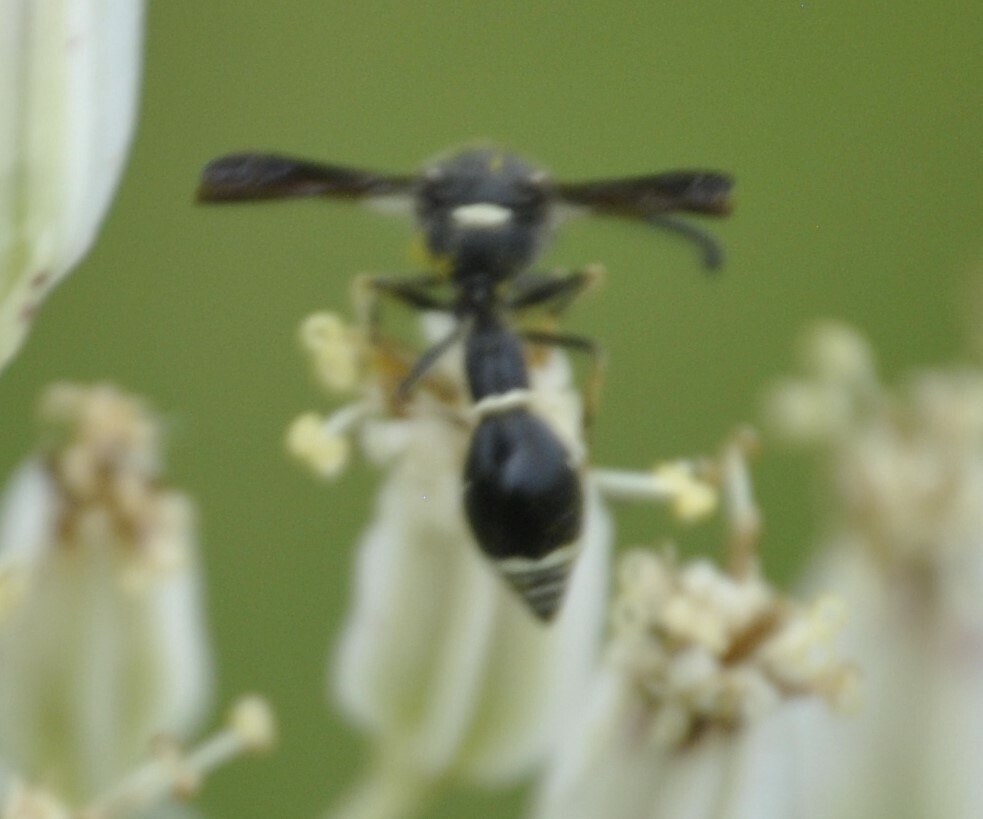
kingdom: Animalia
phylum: Arthropoda
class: Insecta
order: Hymenoptera
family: Vespidae
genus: Eumenes
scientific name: Eumenes fraternus
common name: Fraternal potter wasp
